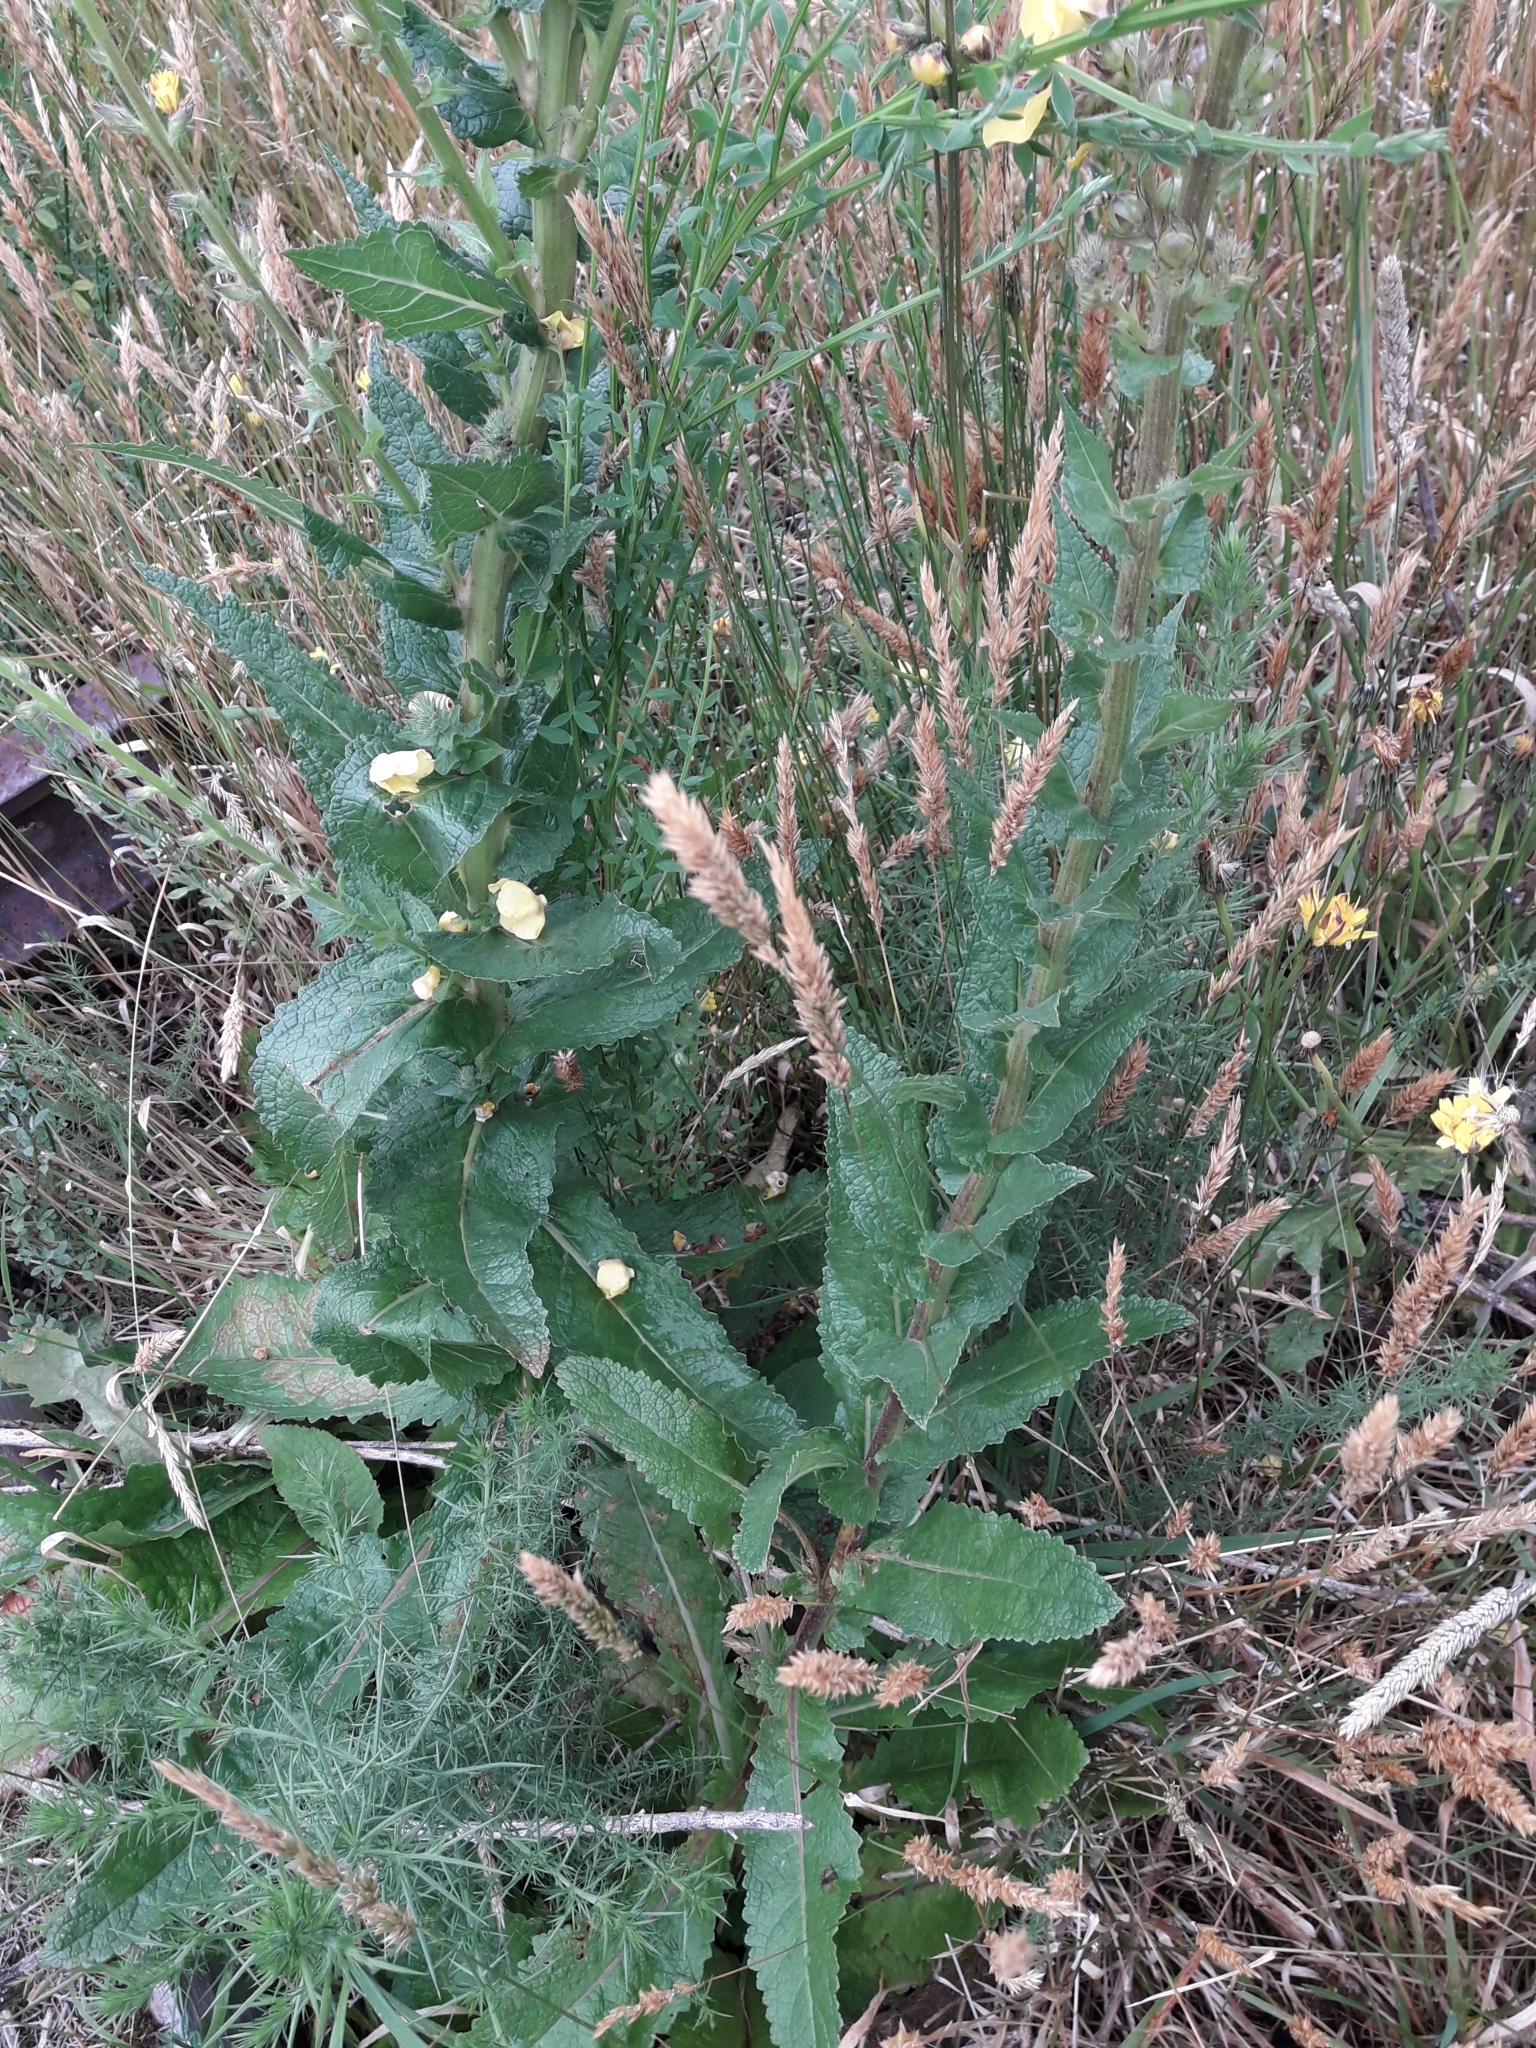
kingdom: Plantae
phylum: Tracheophyta
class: Magnoliopsida
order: Lamiales
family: Scrophulariaceae
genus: Verbascum
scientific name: Verbascum virgatum
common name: Twiggy mullein
